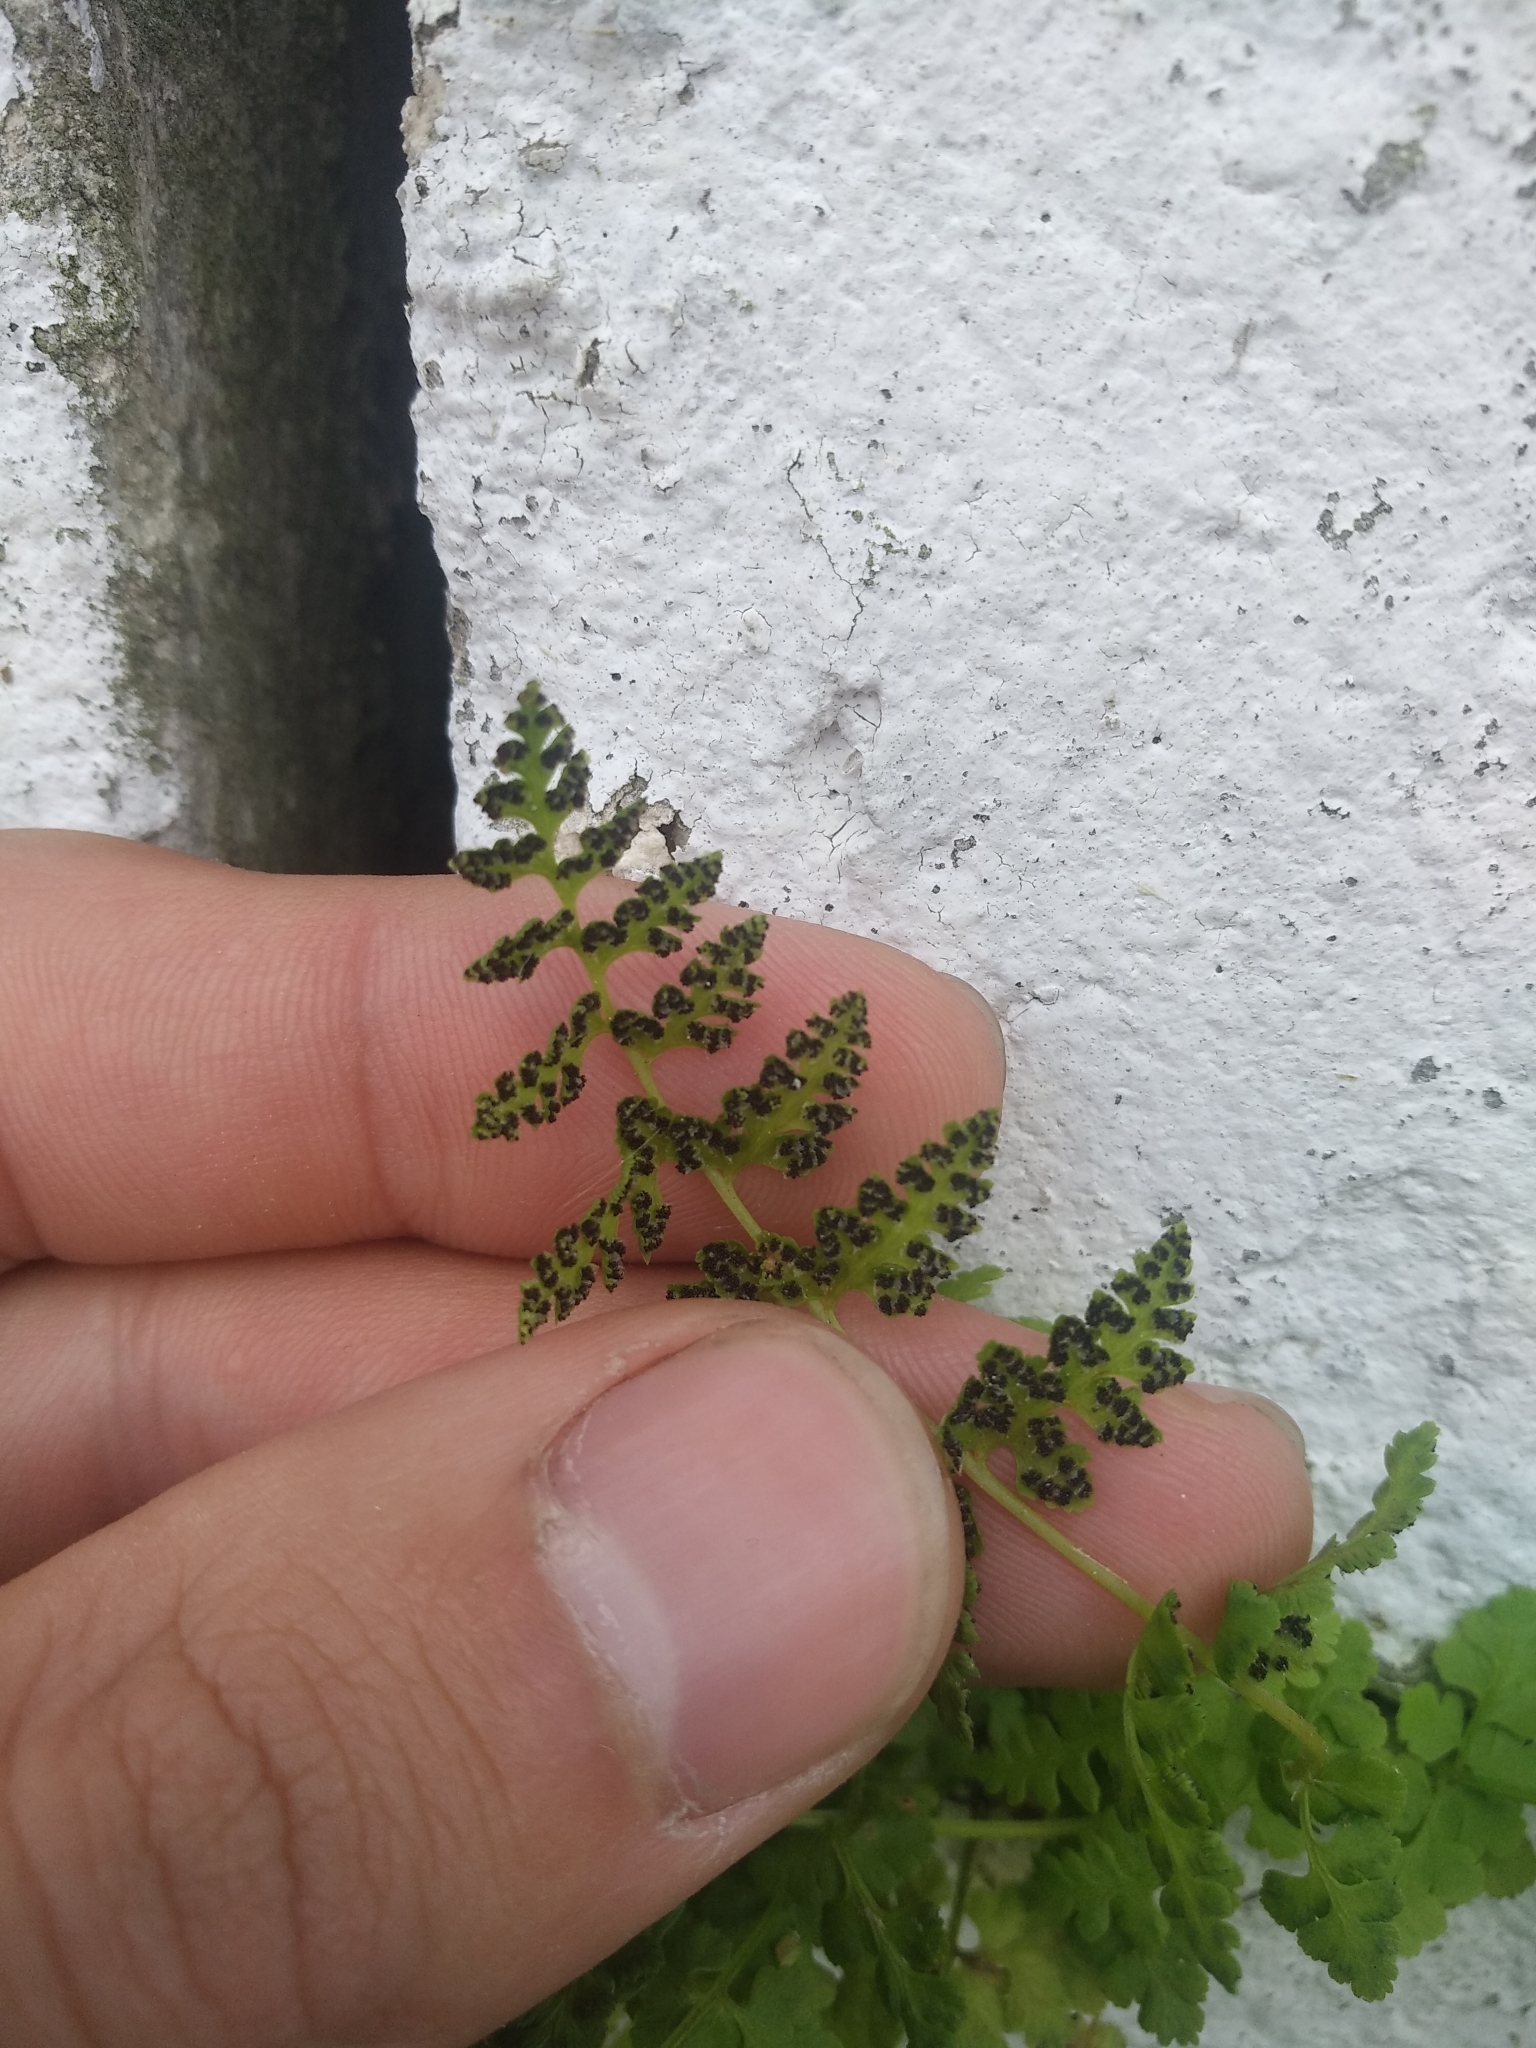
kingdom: Plantae
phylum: Tracheophyta
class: Polypodiopsida
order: Polypodiales
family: Cystopteridaceae
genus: Cystopteris
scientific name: Cystopteris fragilis
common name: Brittle bladder fern
